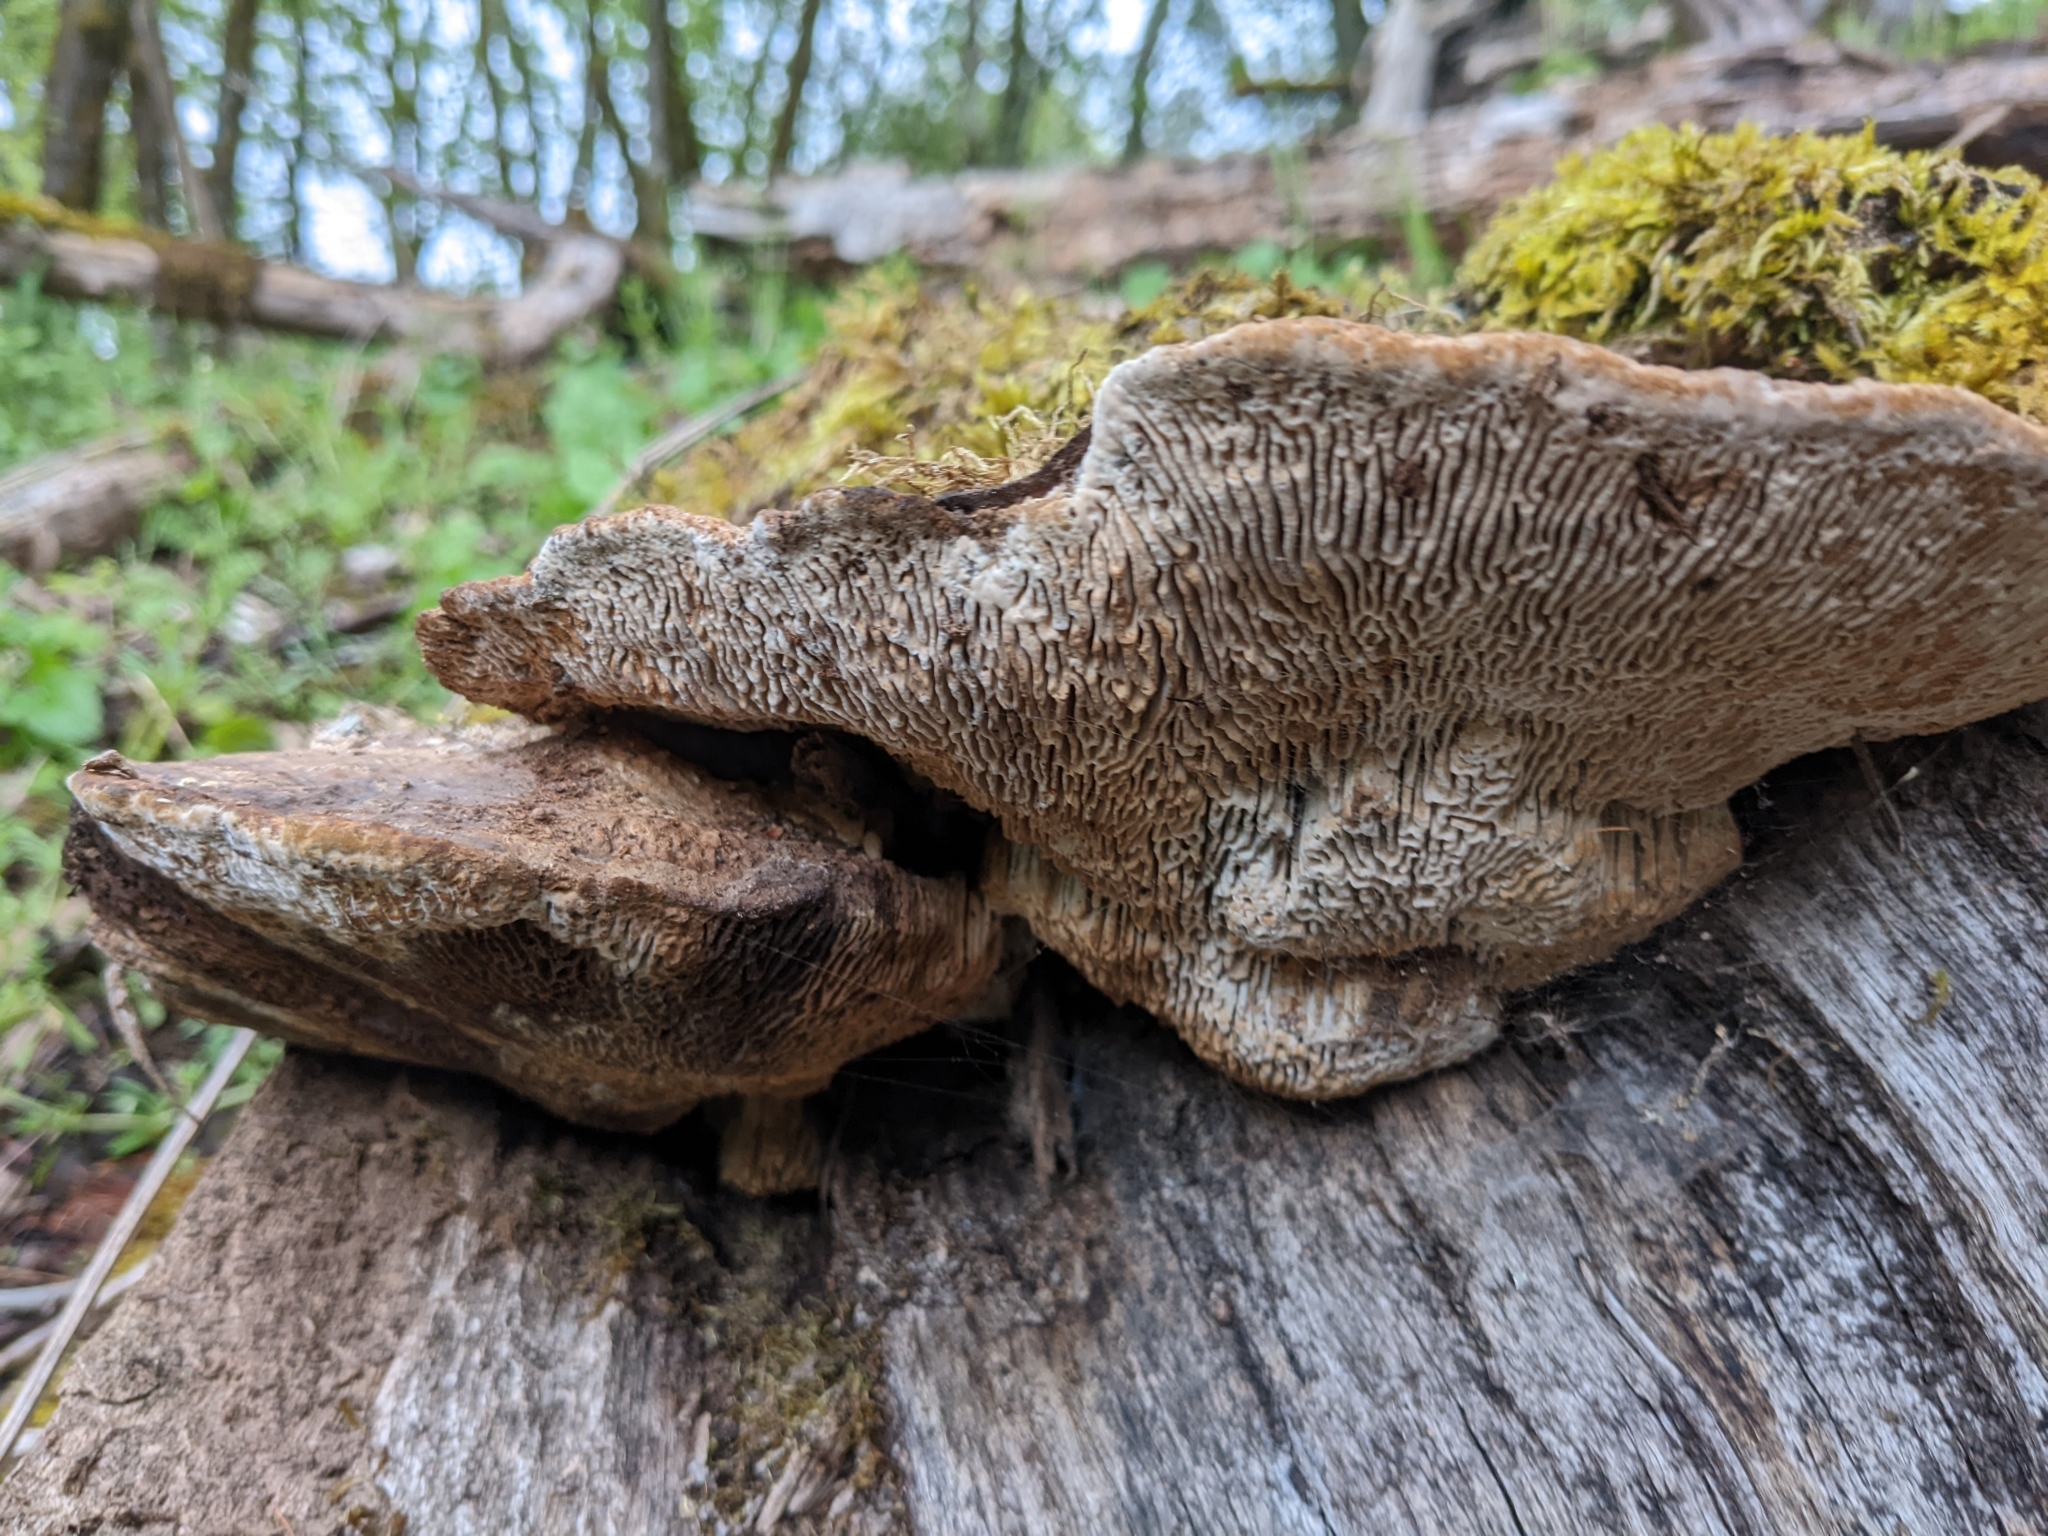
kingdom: Fungi
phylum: Basidiomycota
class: Agaricomycetes
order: Polyporales
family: Fomitopsidaceae
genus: Fomitopsis
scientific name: Fomitopsis
